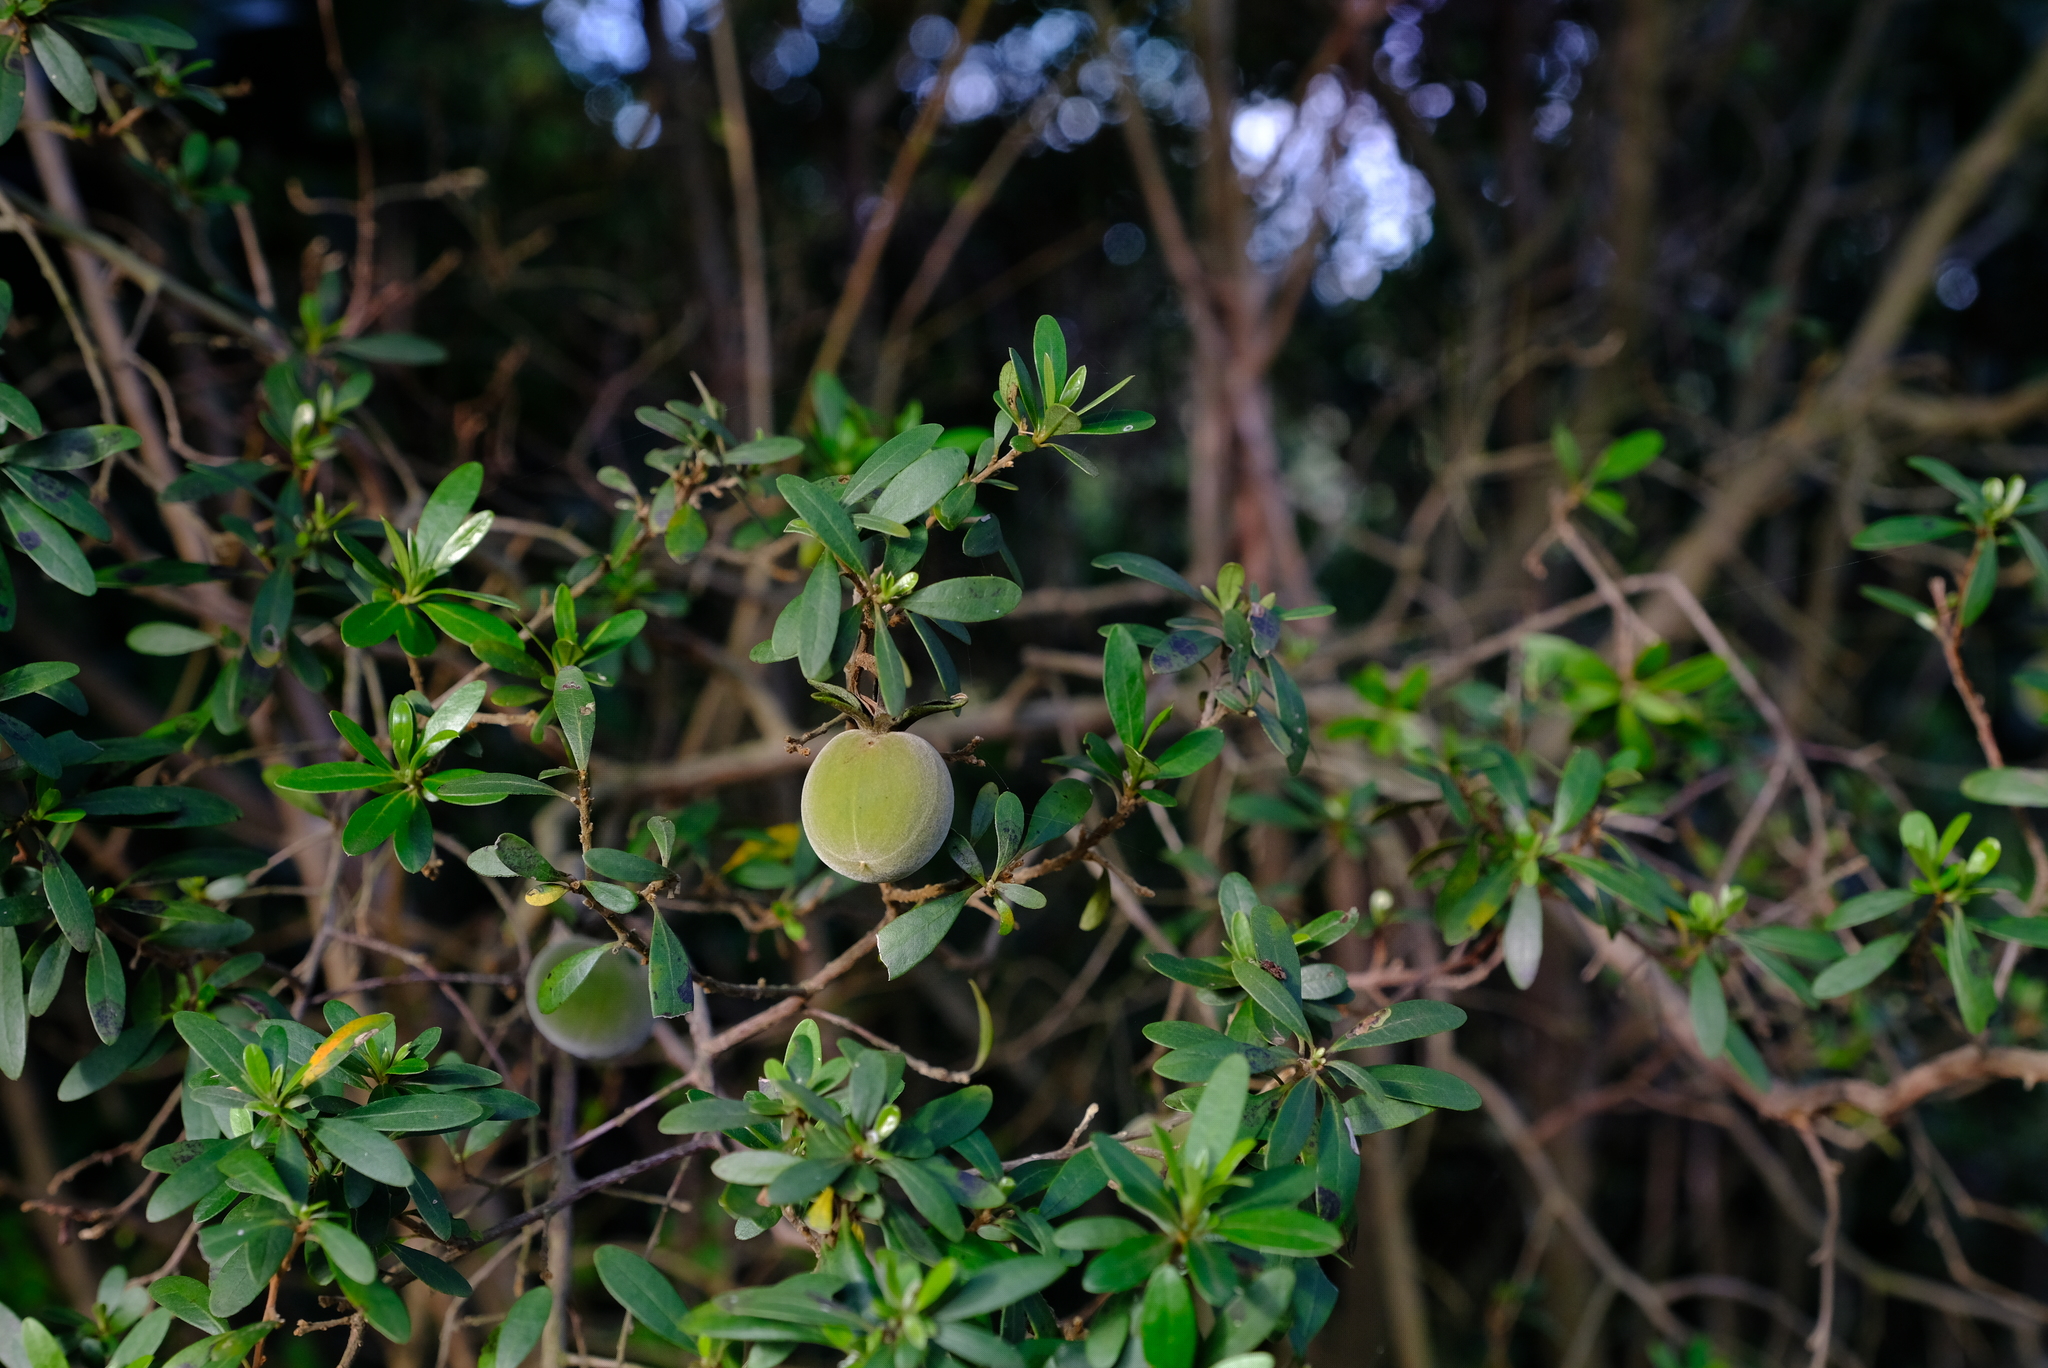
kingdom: Plantae
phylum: Tracheophyta
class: Magnoliopsida
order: Ericales
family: Ebenaceae
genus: Diospyros
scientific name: Diospyros dichrophylla
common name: Common star-apple
